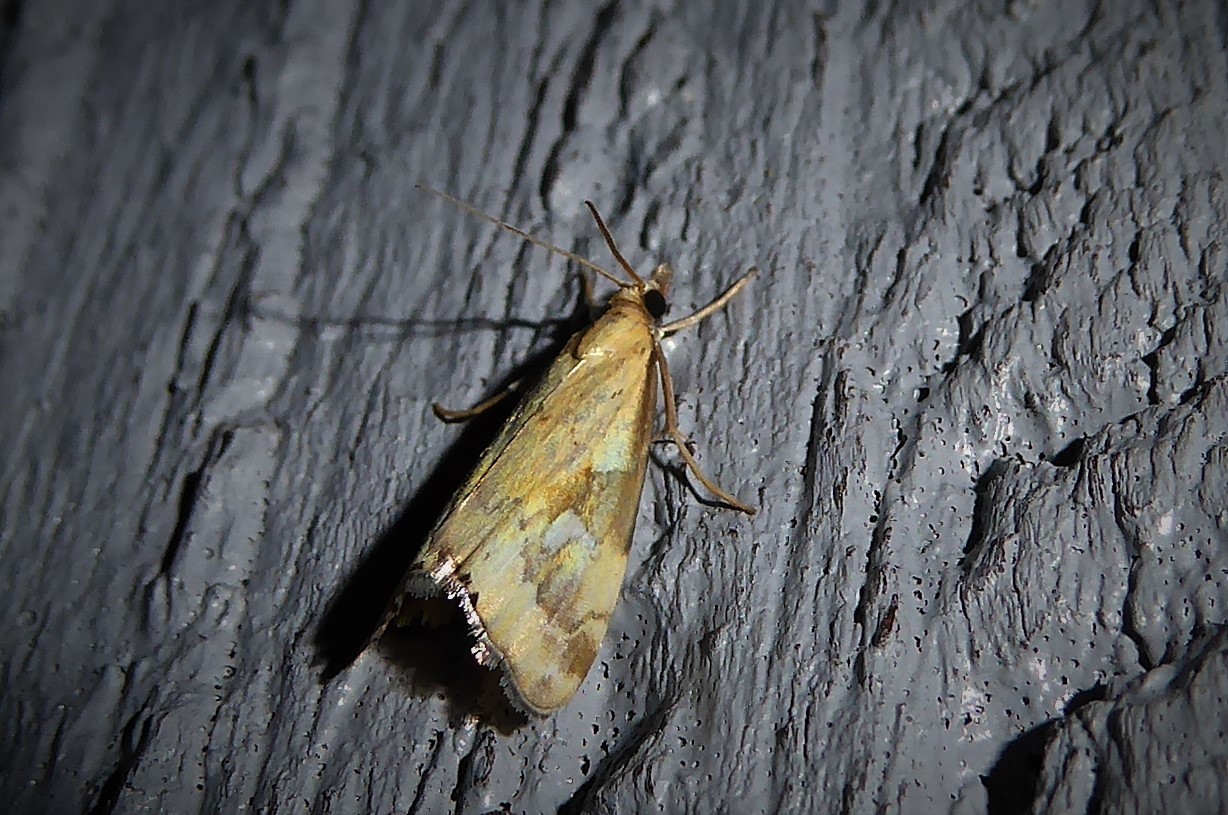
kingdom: Animalia
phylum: Arthropoda
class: Insecta
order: Lepidoptera
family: Crambidae
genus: Glaucocharis
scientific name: Glaucocharis lepidella
